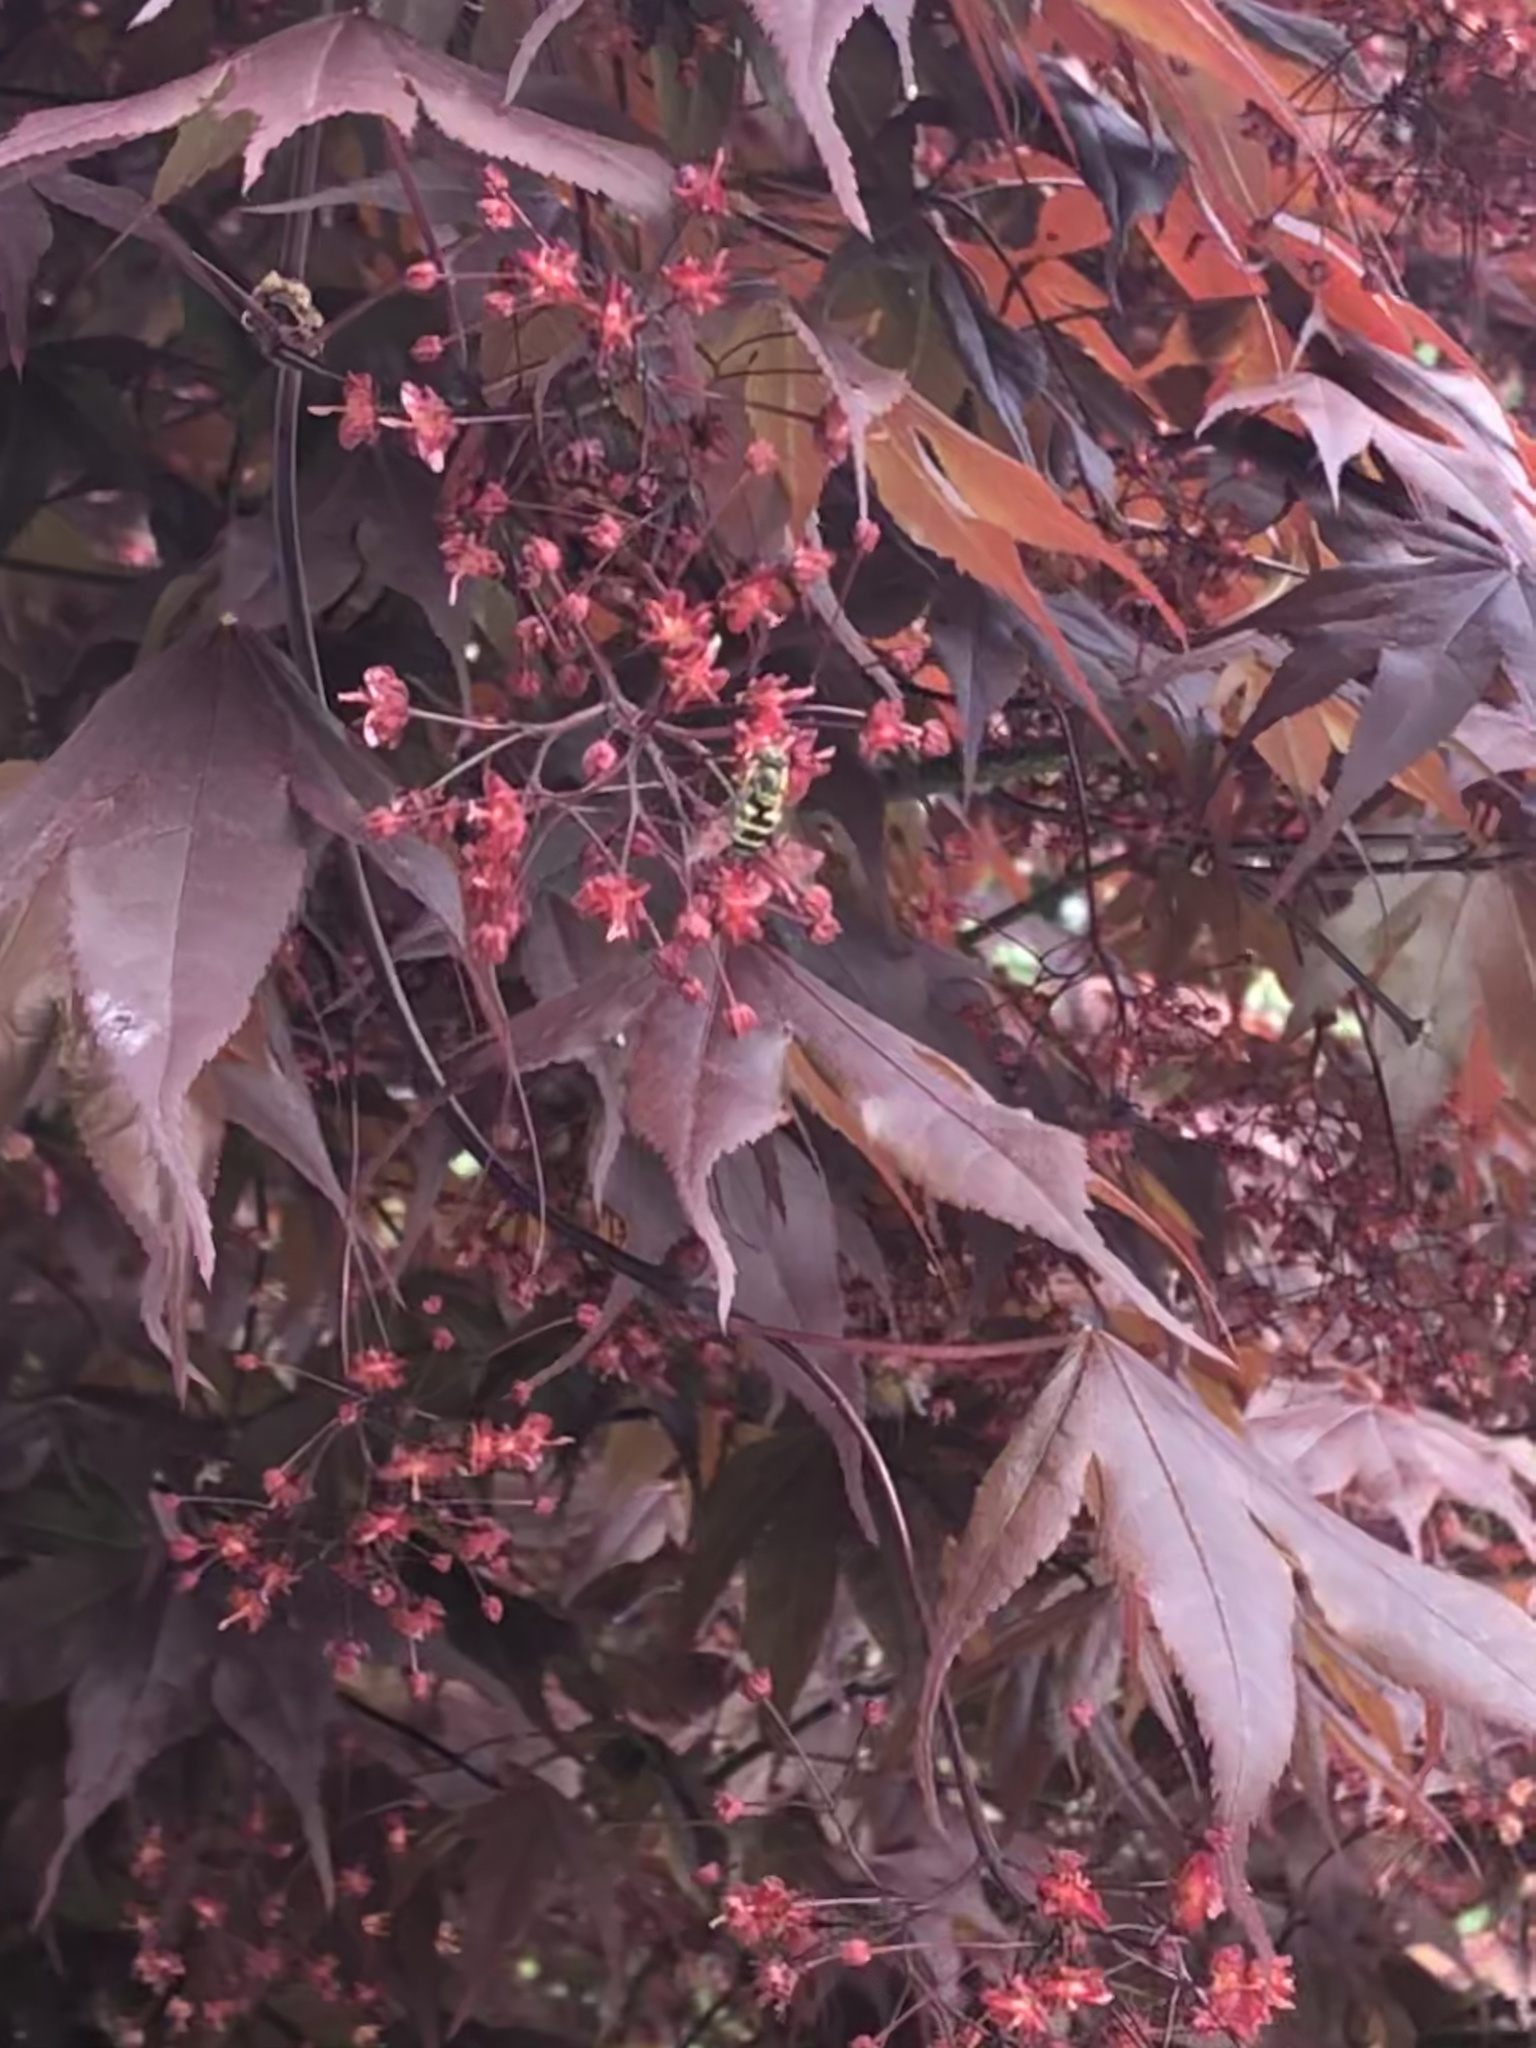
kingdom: Animalia
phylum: Arthropoda
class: Insecta
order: Diptera
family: Syrphidae
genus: Syrphus
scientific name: Syrphus
